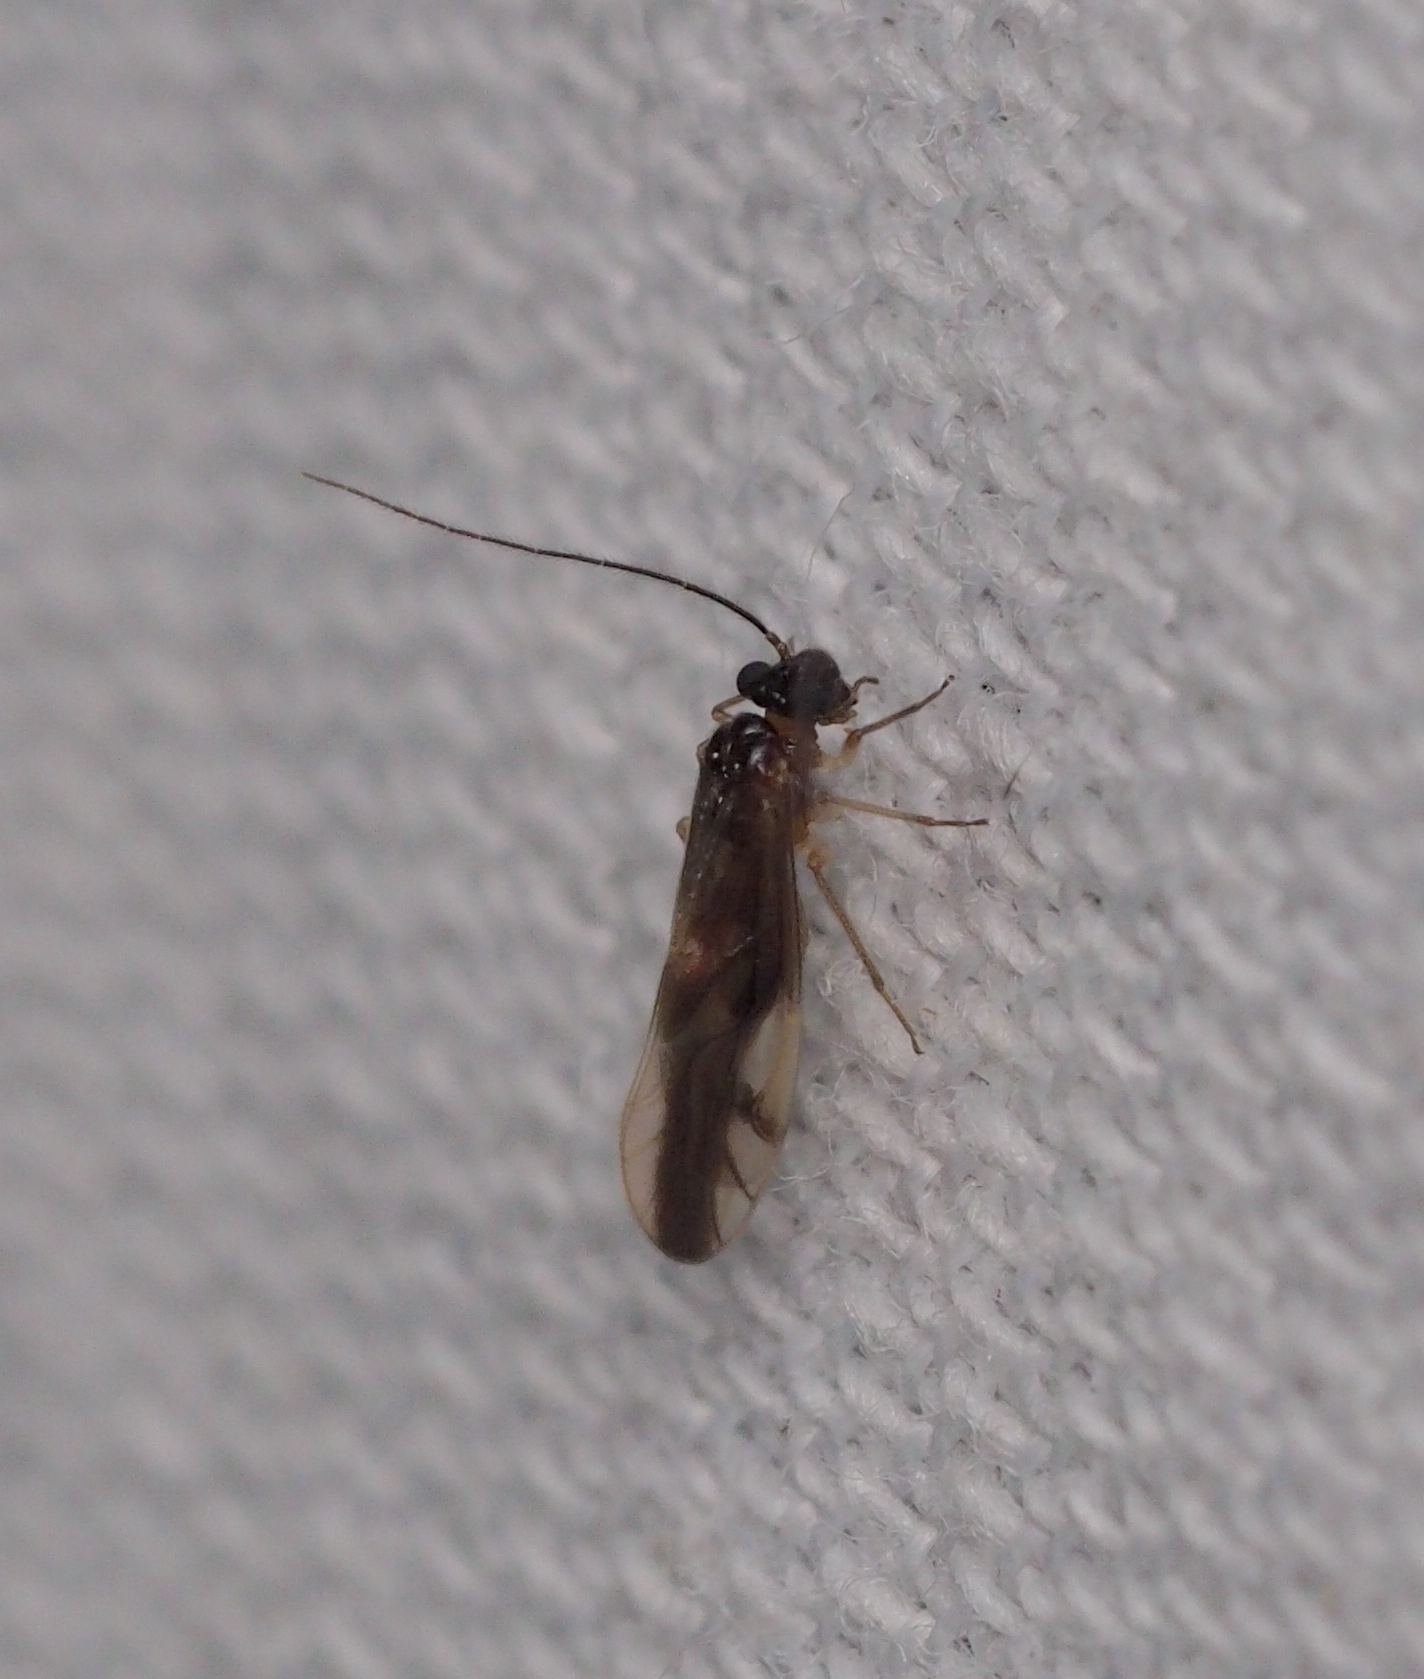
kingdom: Animalia
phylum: Arthropoda
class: Insecta
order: Psocodea
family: Caeciliusidae
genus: Caecilius
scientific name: Caecilius fuscopterus
